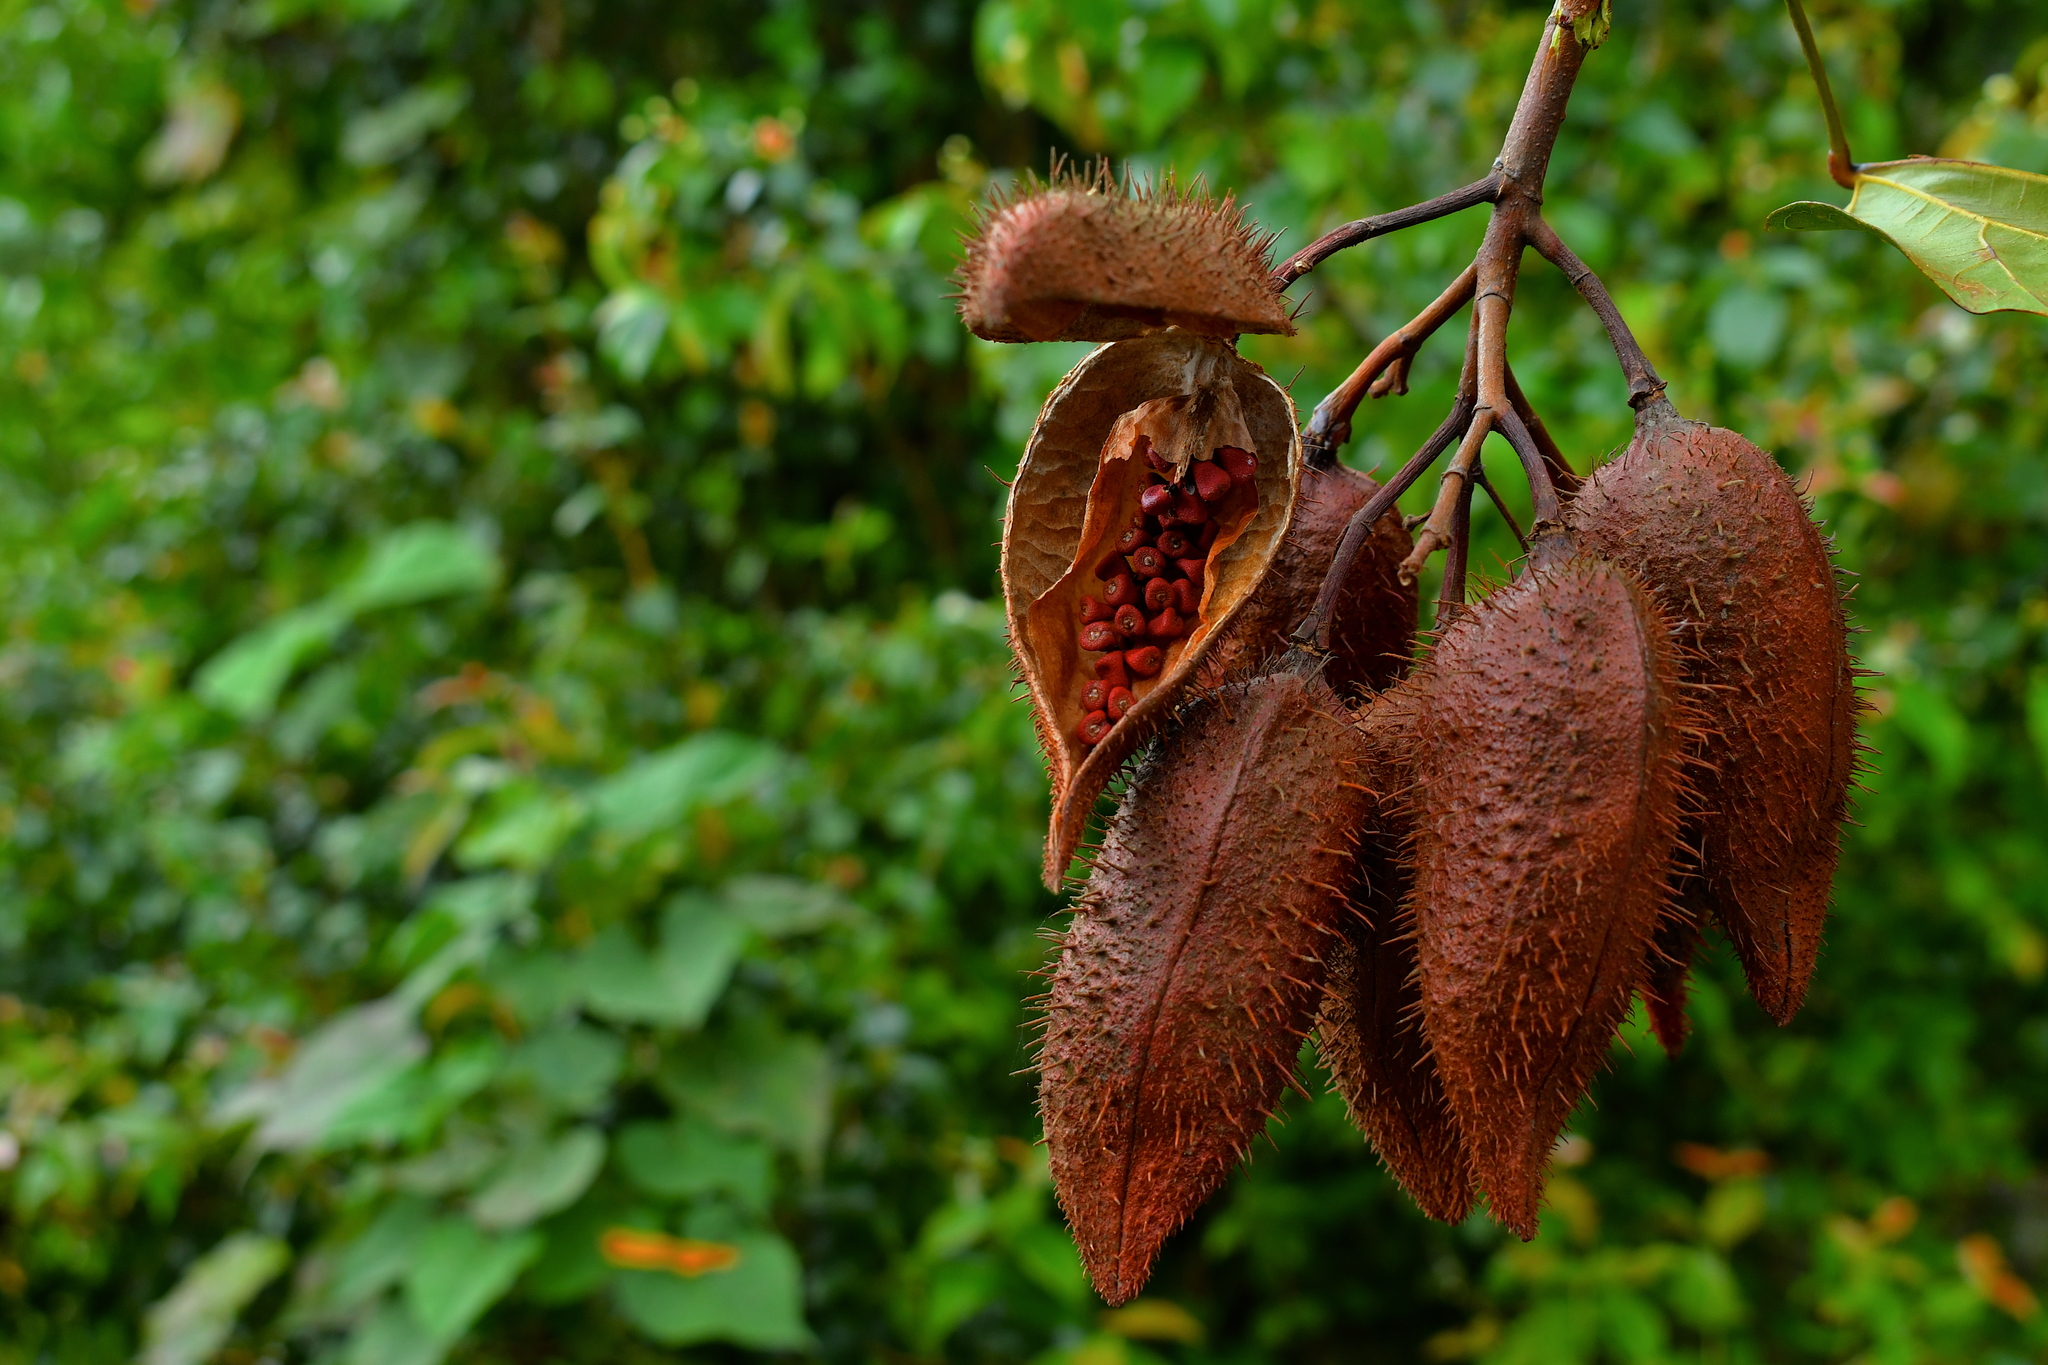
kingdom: Plantae
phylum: Tracheophyta
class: Magnoliopsida
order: Malvales
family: Bixaceae
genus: Bixa
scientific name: Bixa orellana
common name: Lipsticktree
